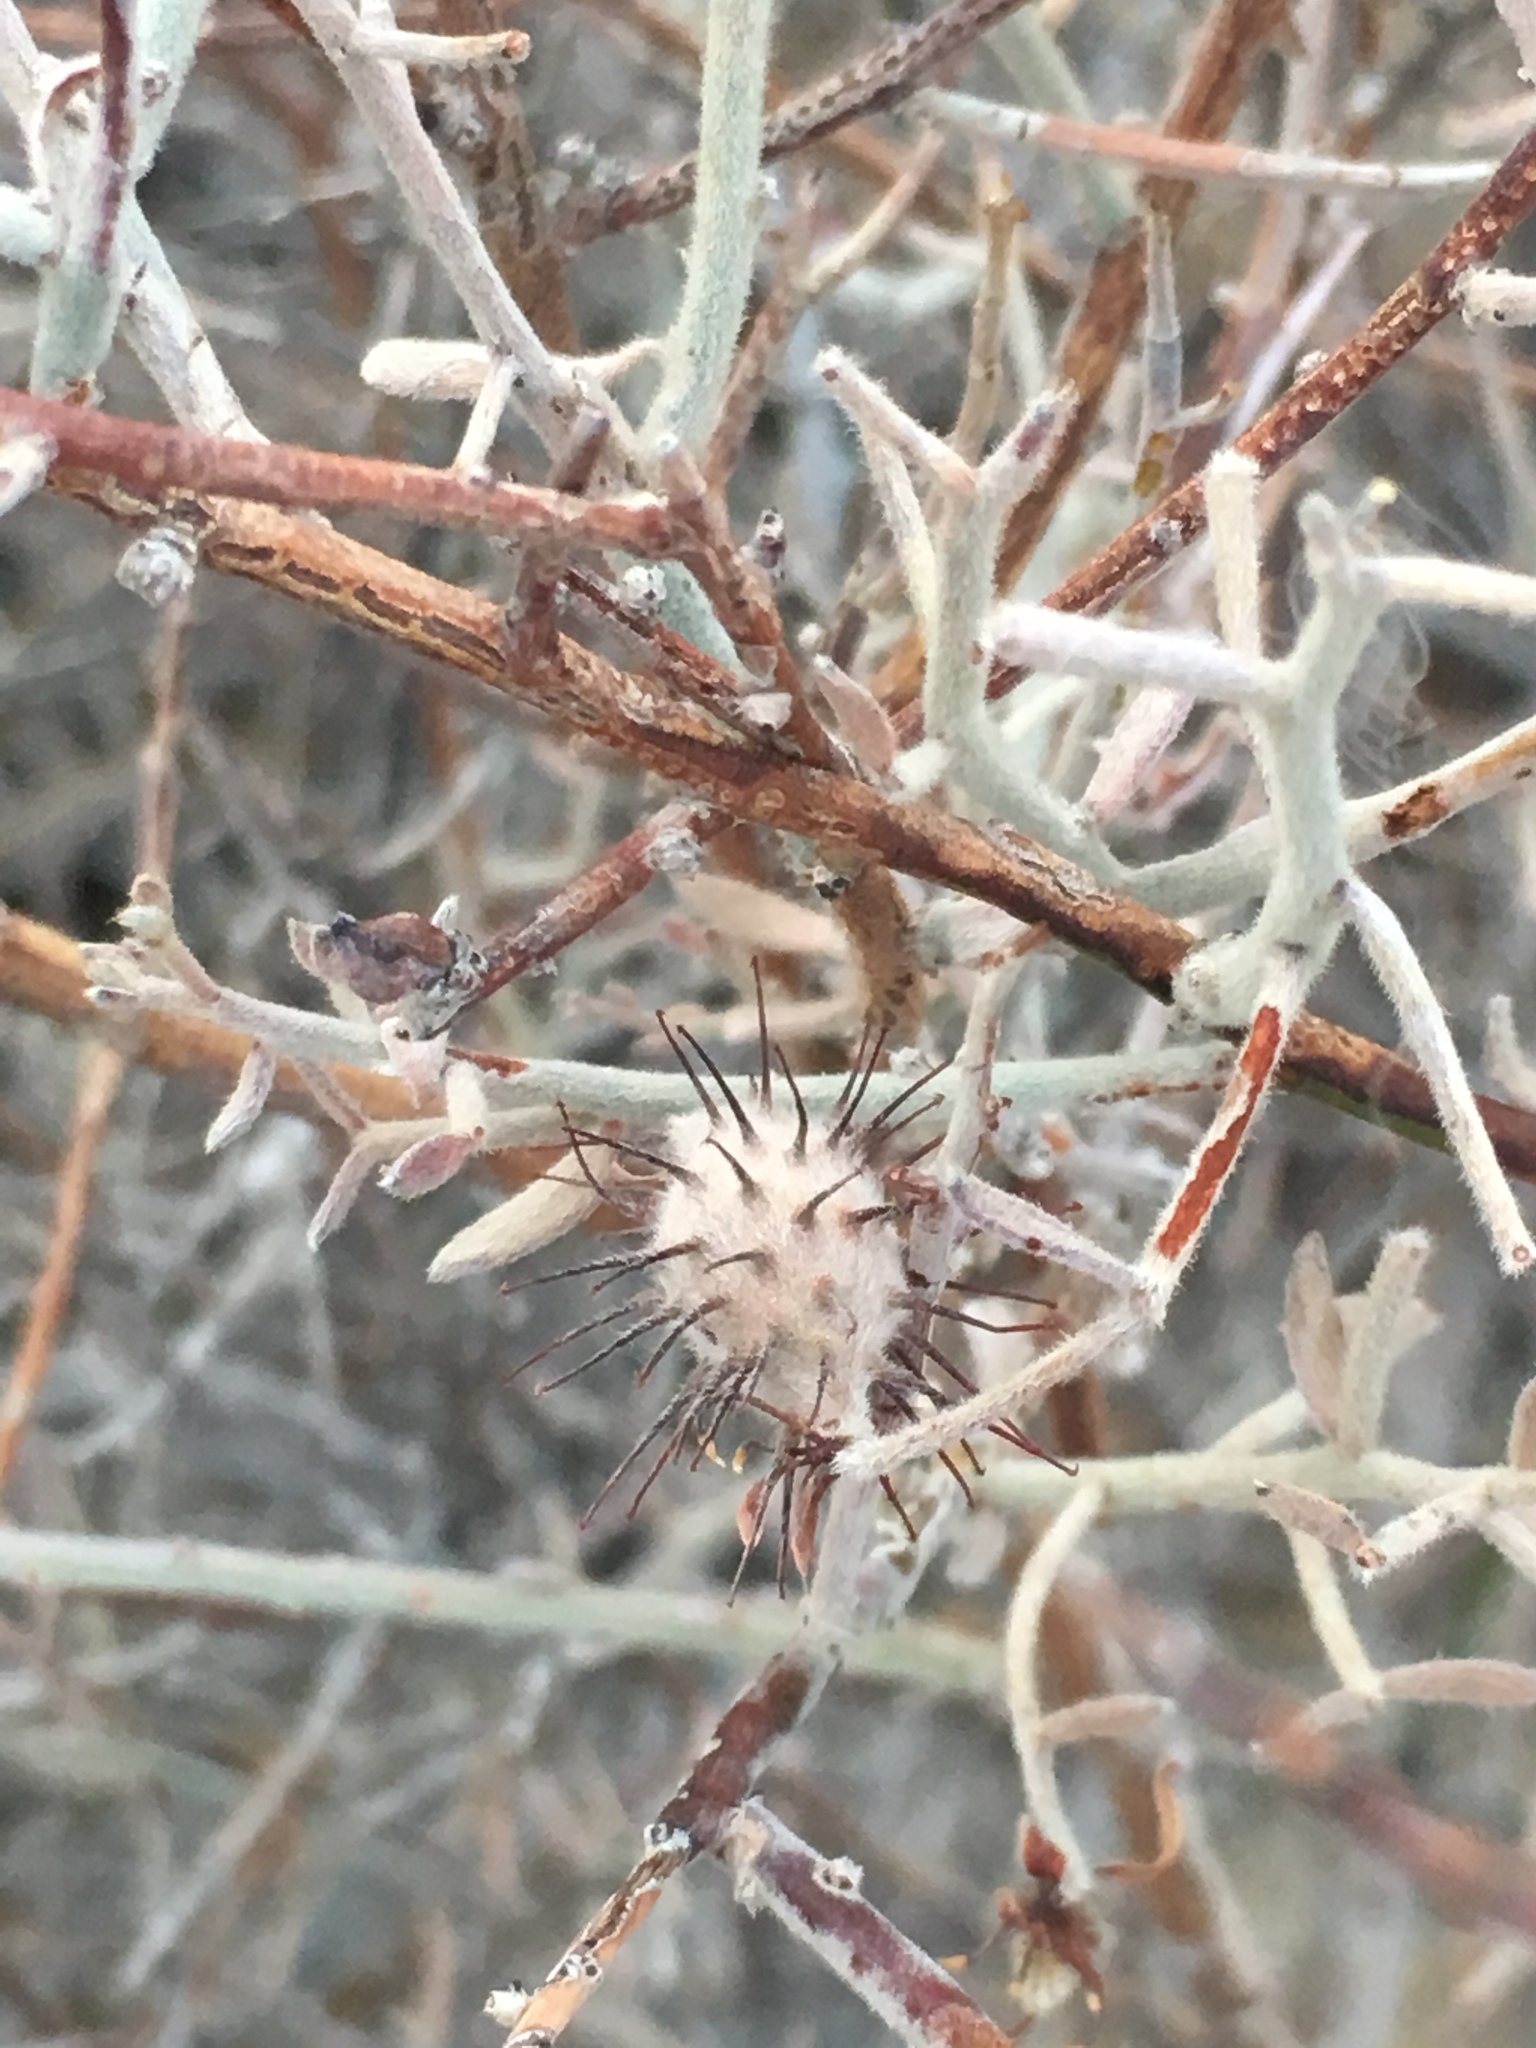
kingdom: Plantae
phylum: Tracheophyta
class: Magnoliopsida
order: Zygophyllales
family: Krameriaceae
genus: Krameria
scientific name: Krameria bicolor
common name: White ratany
